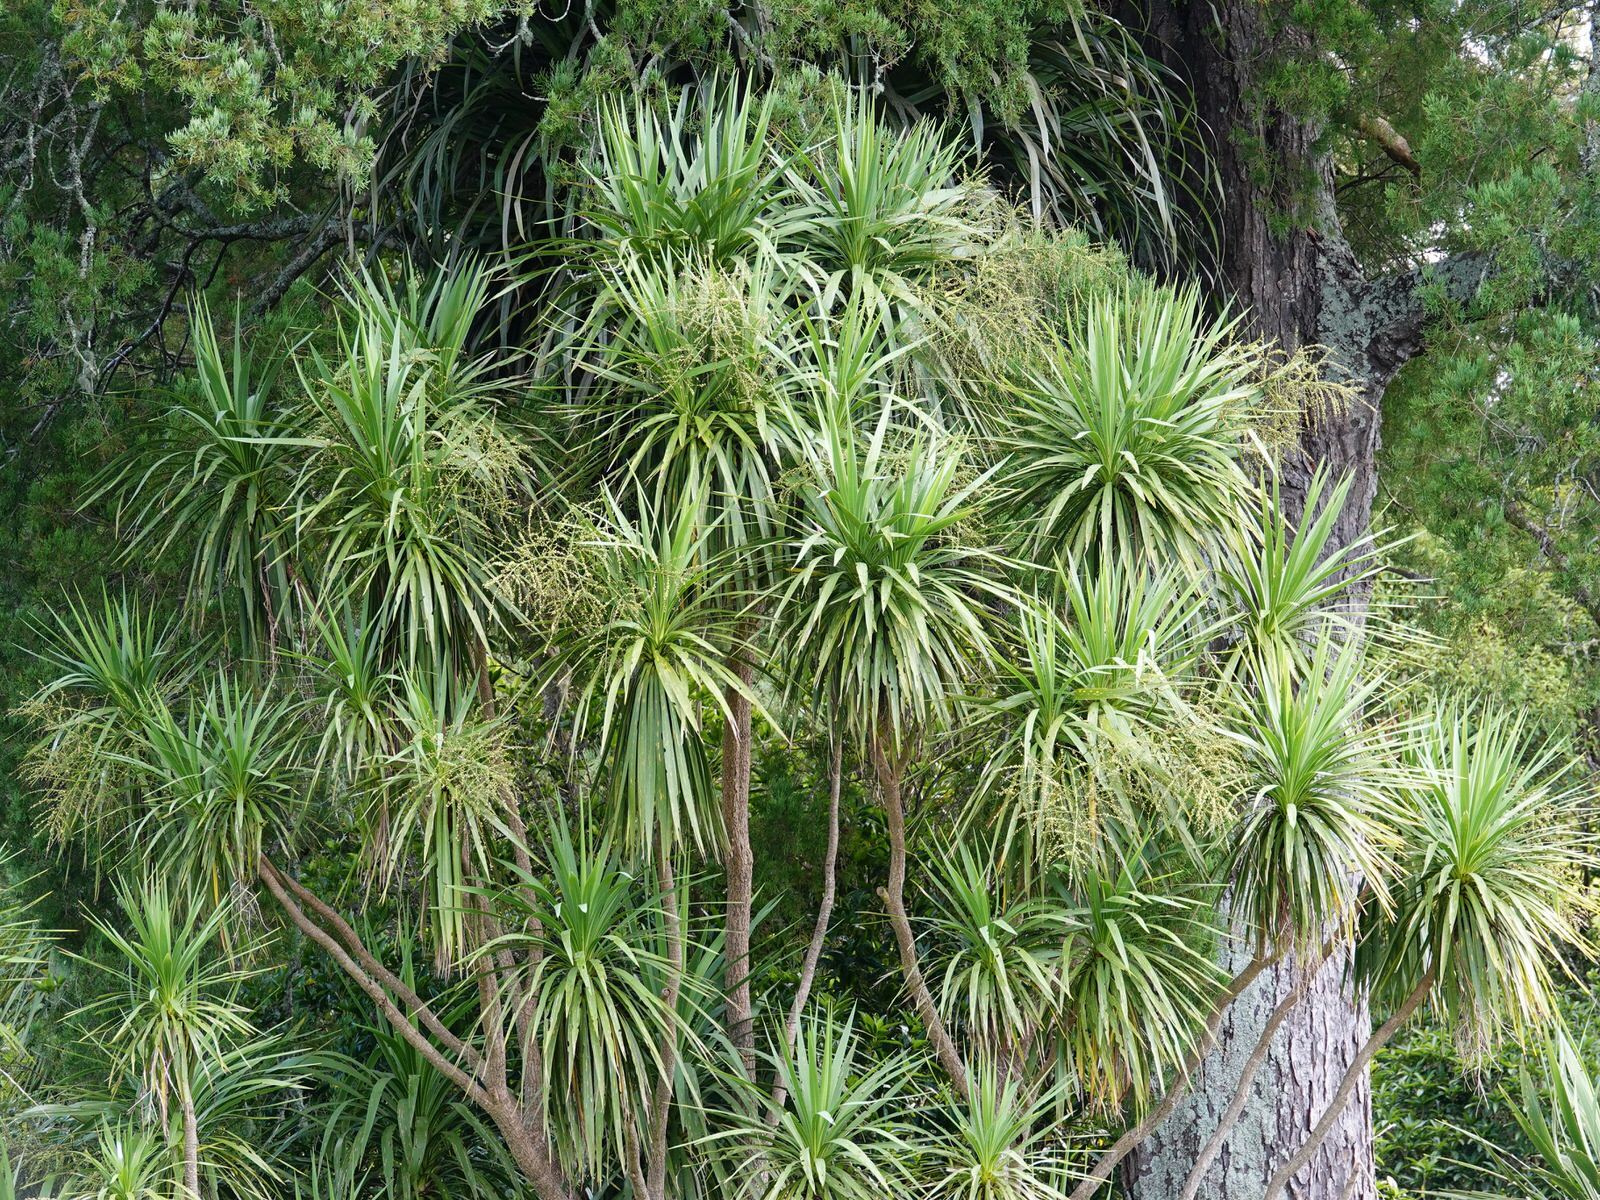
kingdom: Plantae
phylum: Tracheophyta
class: Liliopsida
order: Asparagales
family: Asparagaceae
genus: Cordyline
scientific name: Cordyline australis
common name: Cabbage-palm
